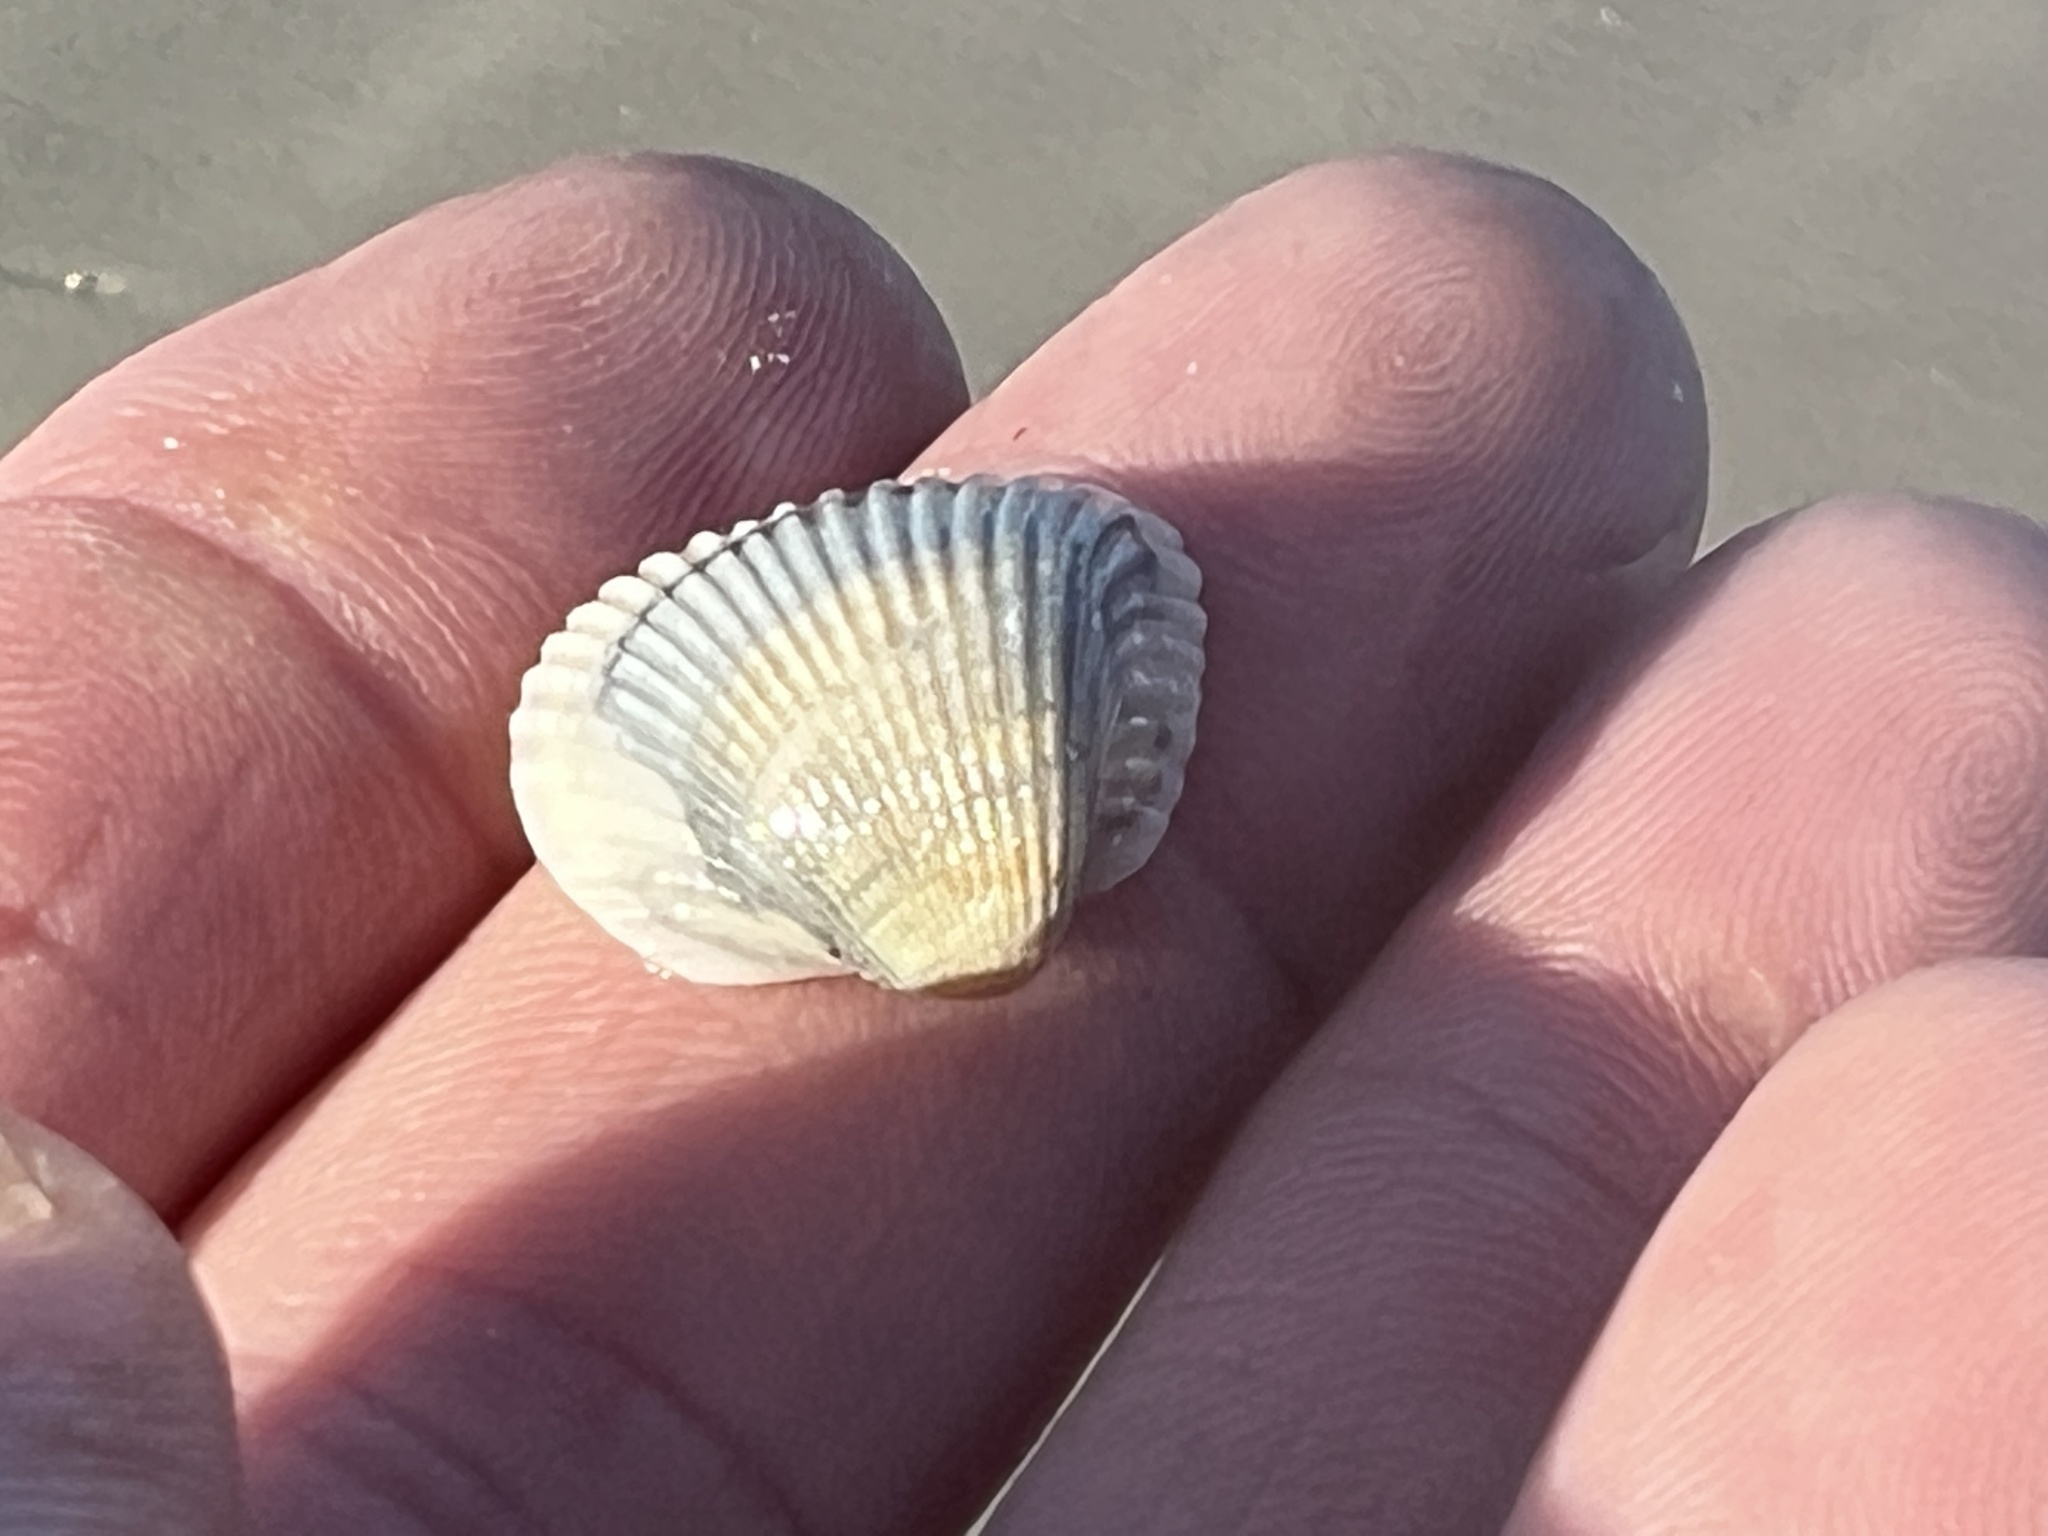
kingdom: Animalia
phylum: Mollusca
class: Bivalvia
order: Arcida
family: Noetiidae
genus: Noetia
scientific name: Noetia ponderosa
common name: Ponderous ark
